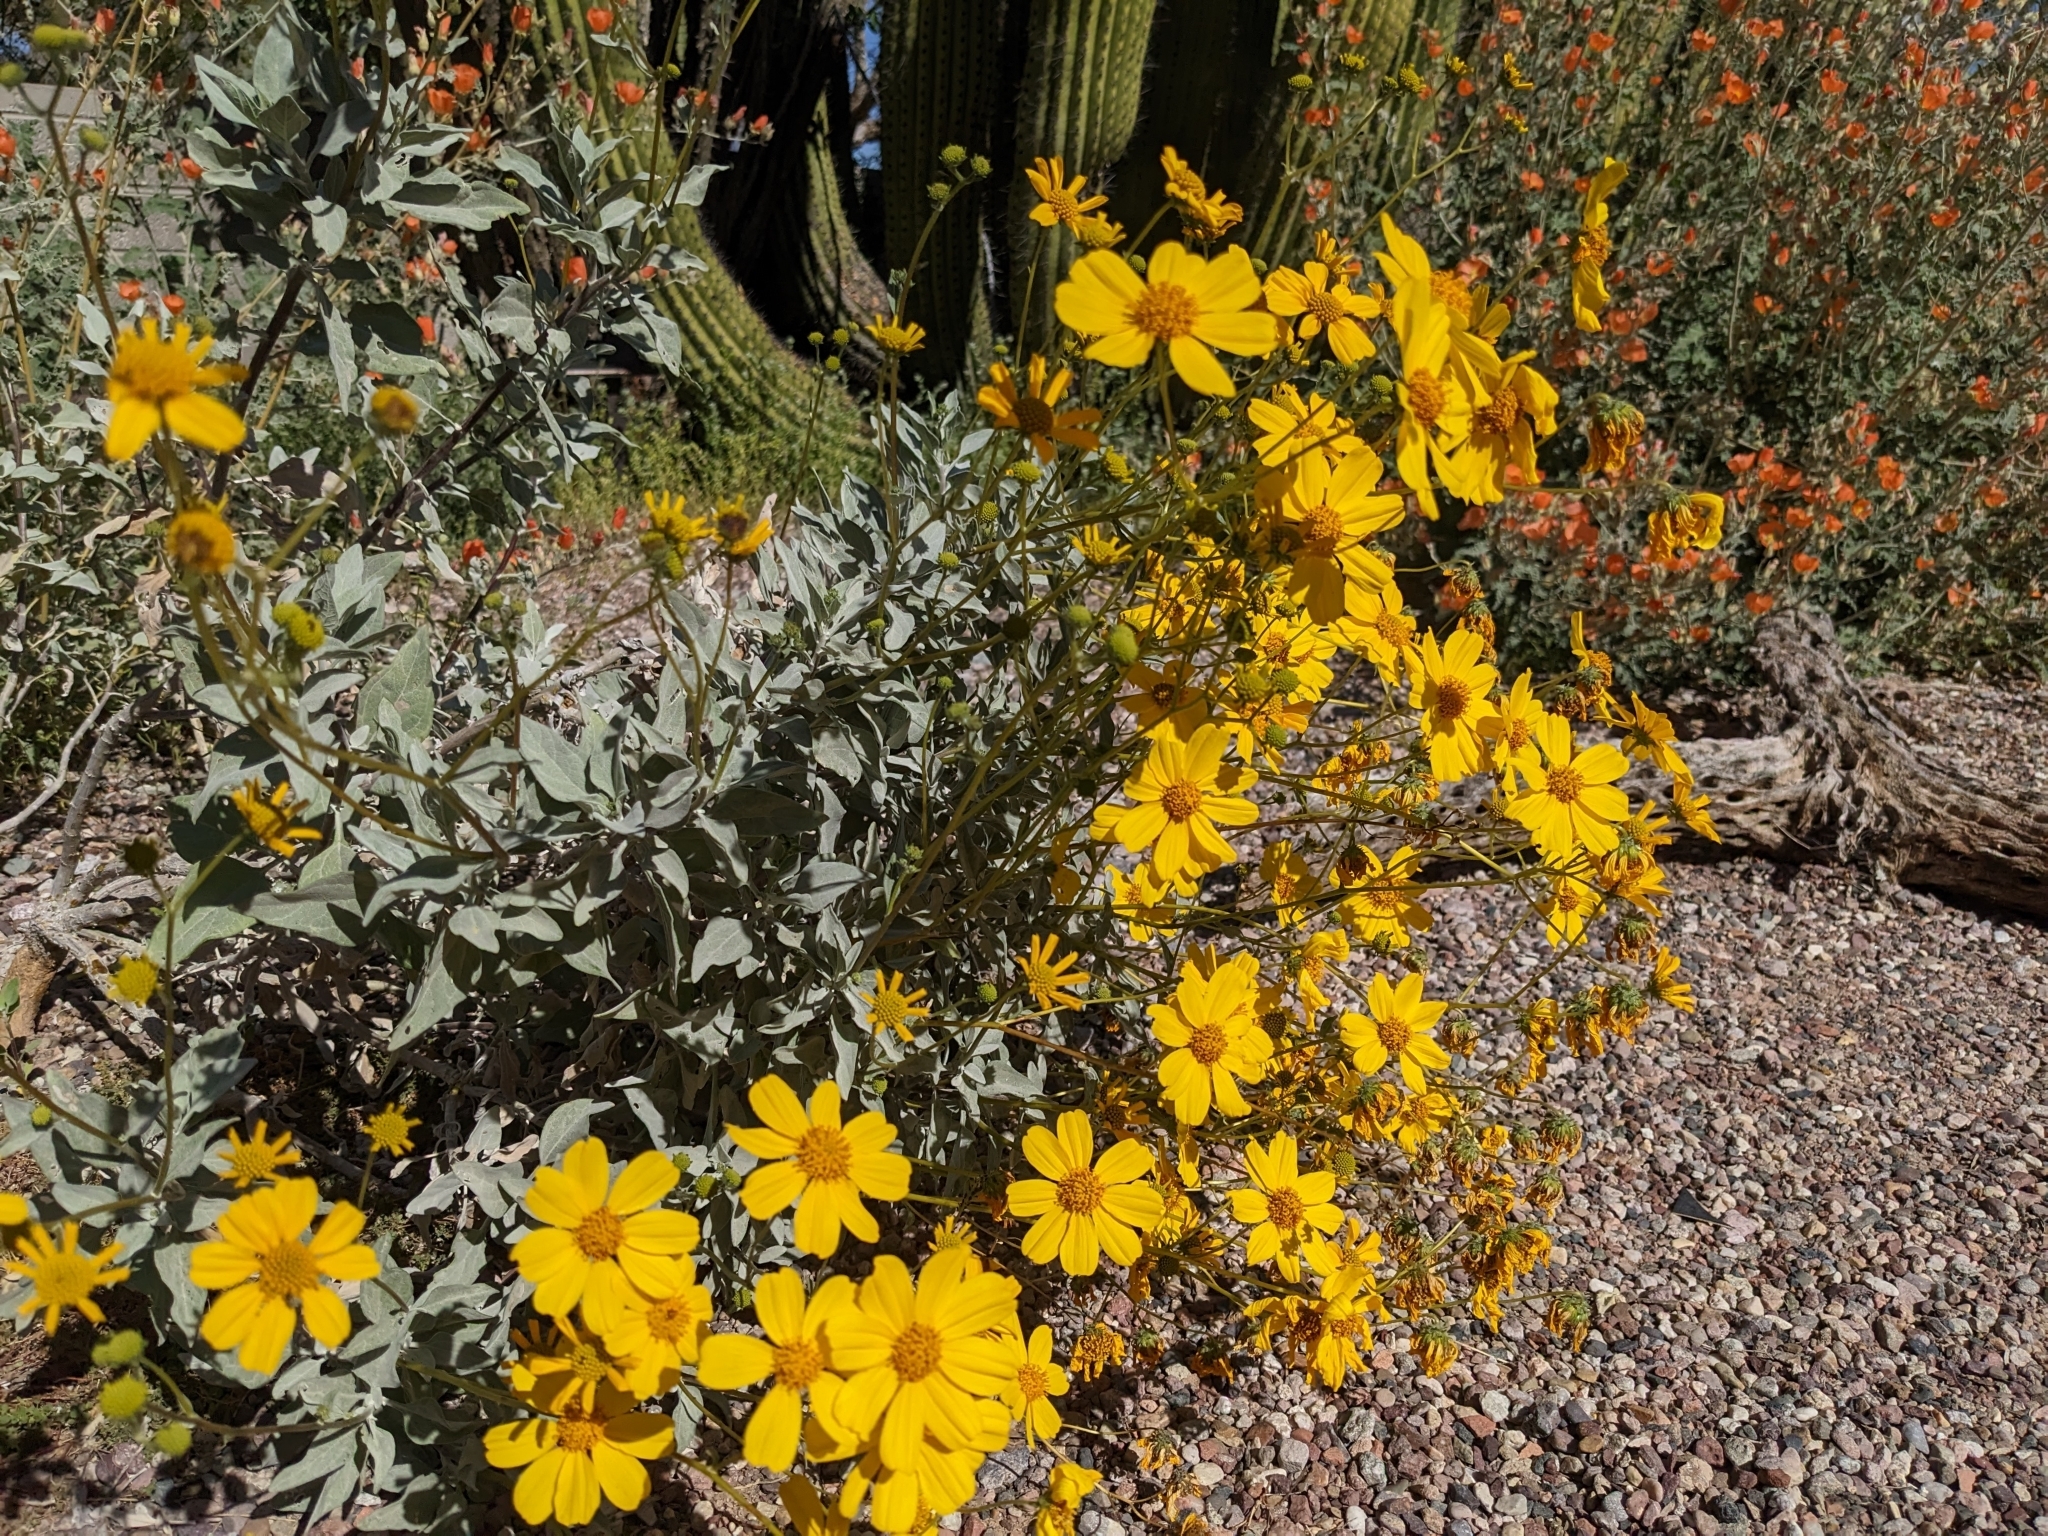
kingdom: Plantae
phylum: Tracheophyta
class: Magnoliopsida
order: Asterales
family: Asteraceae
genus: Encelia
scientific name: Encelia farinosa
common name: Brittlebush
